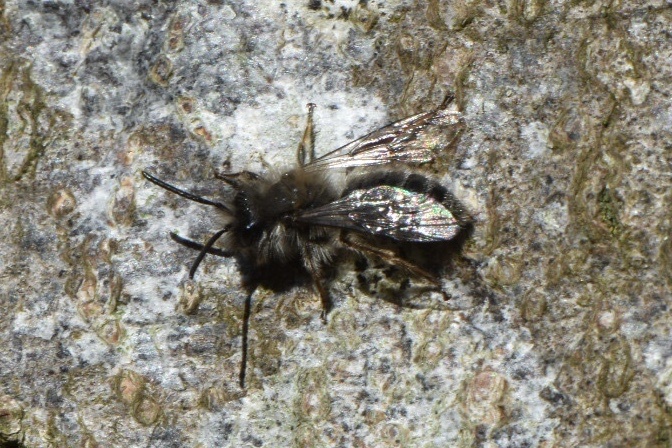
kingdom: Animalia
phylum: Arthropoda
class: Insecta
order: Hymenoptera
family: Andrenidae
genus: Andrena
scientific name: Andrena clarkella
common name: Clarke's mining bee
